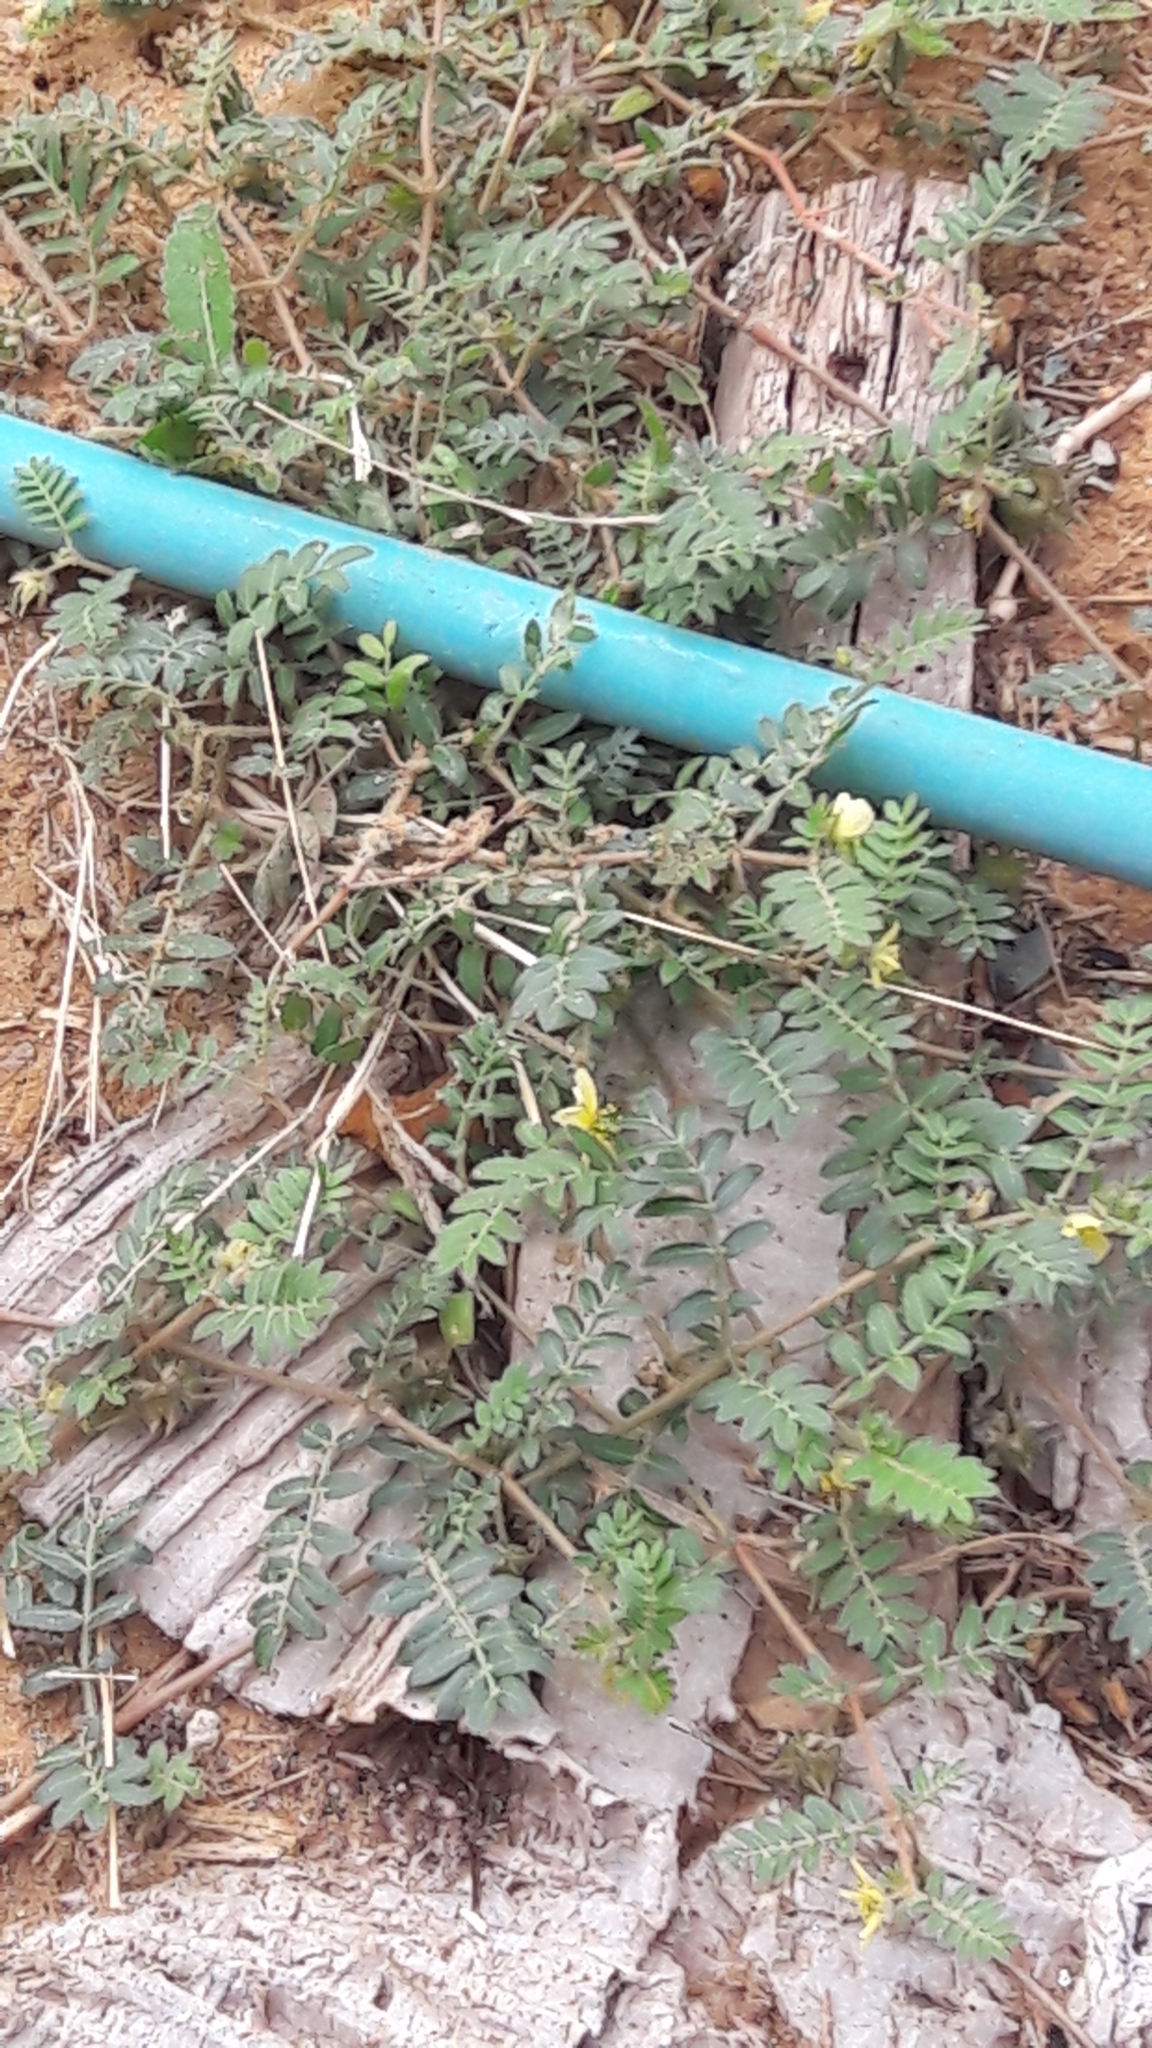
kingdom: Plantae
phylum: Tracheophyta
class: Magnoliopsida
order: Zygophyllales
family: Zygophyllaceae
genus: Tribulus
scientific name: Tribulus terrestris
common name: Puncturevine
